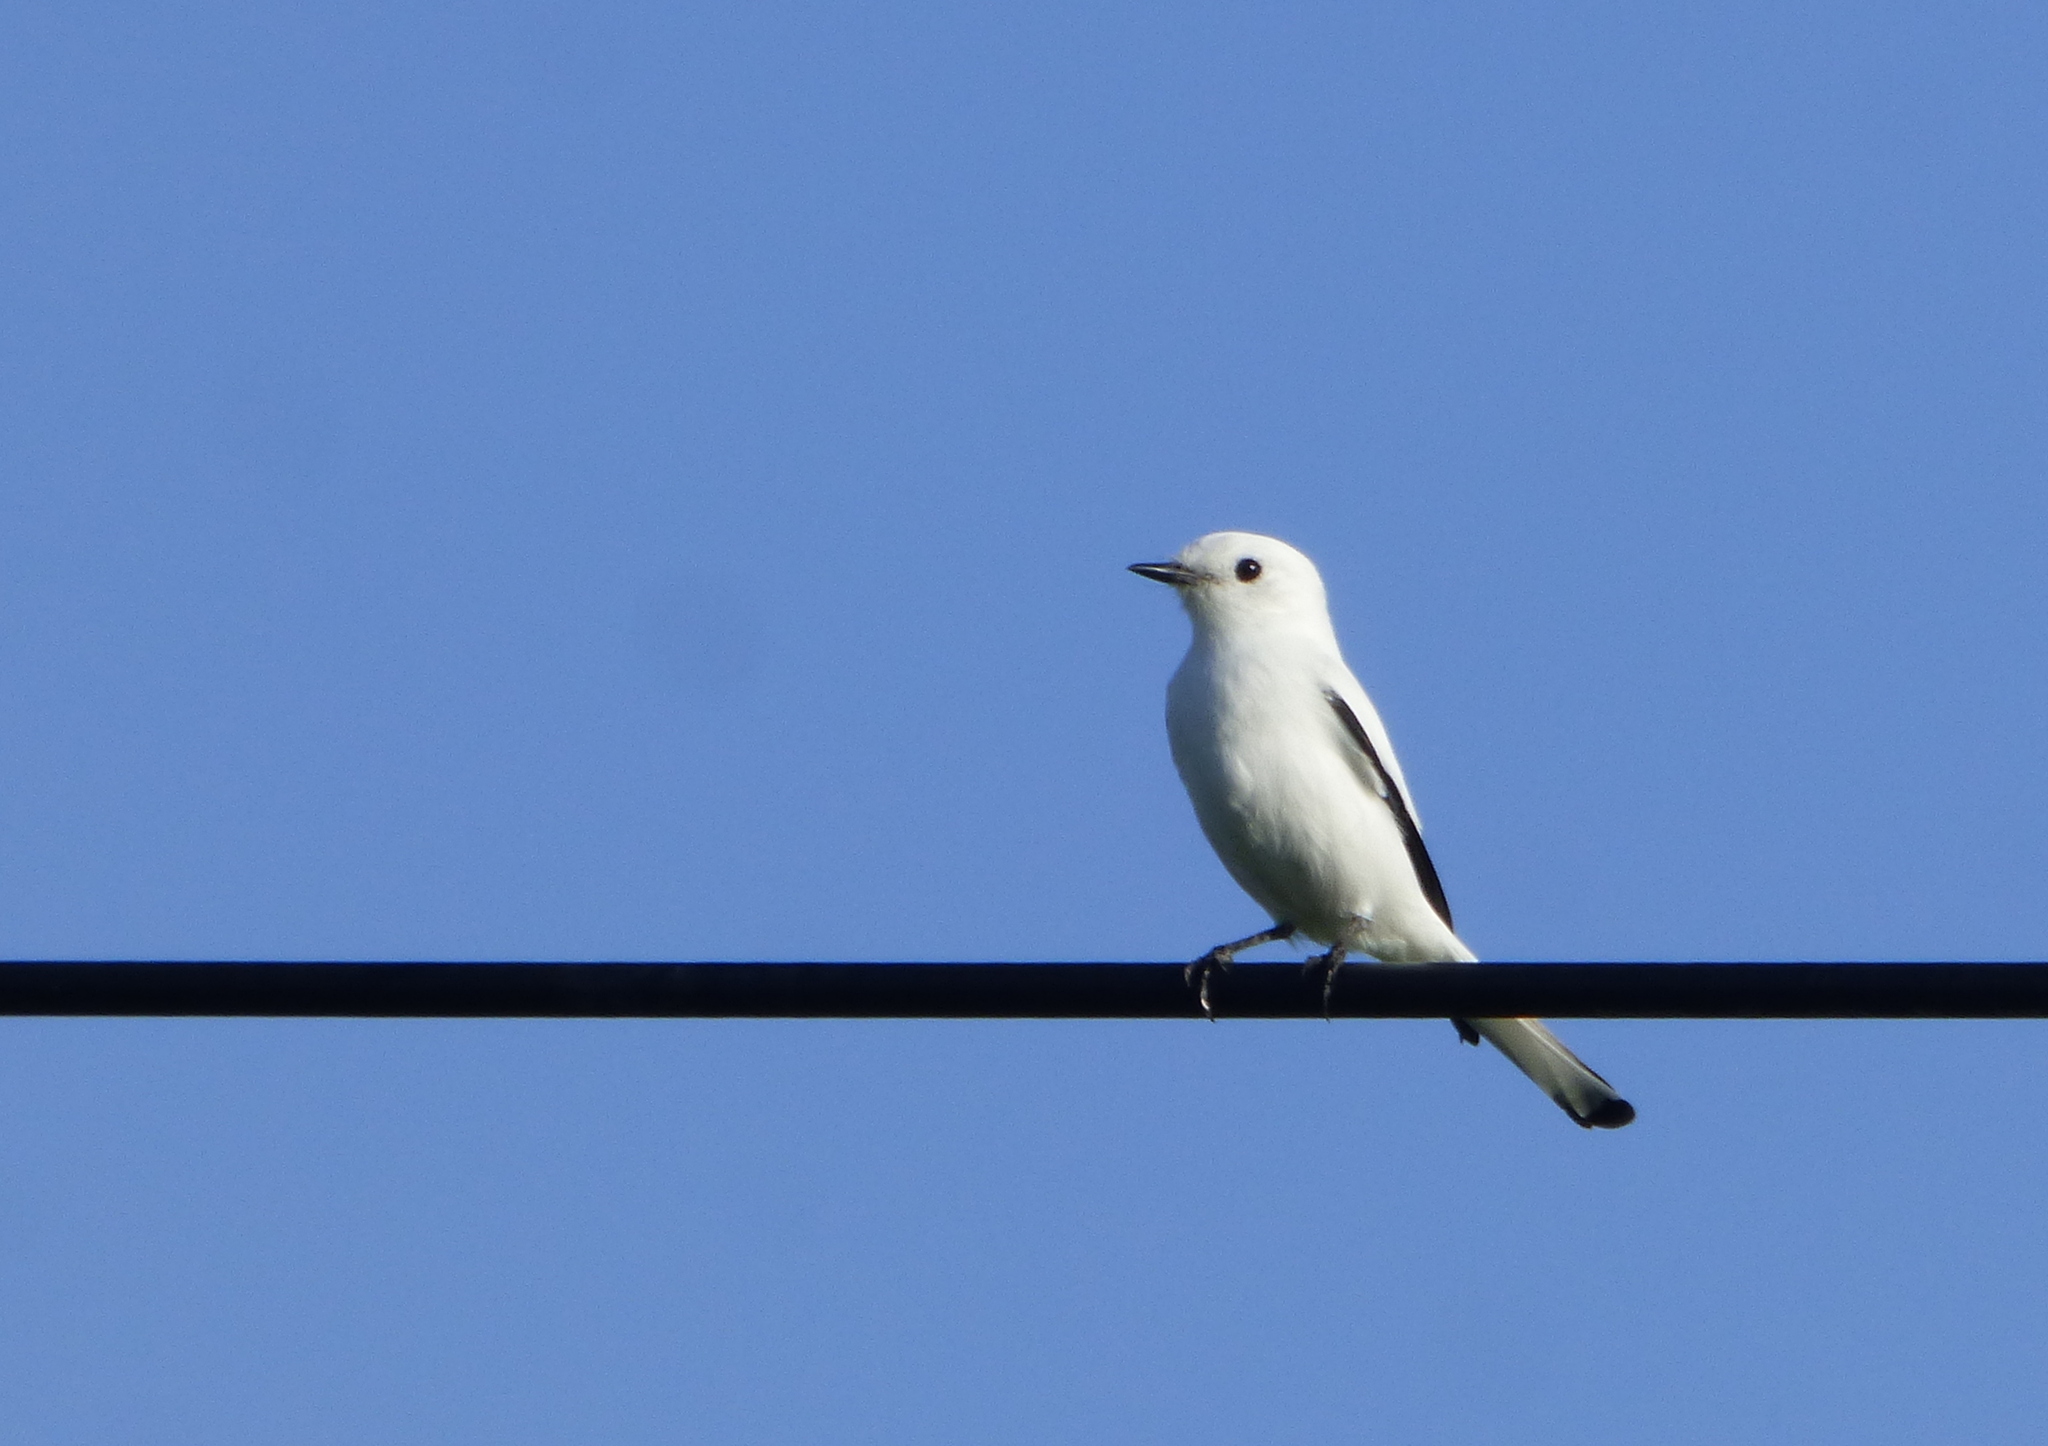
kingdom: Animalia
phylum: Chordata
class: Aves
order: Passeriformes
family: Tyrannidae
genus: Xolmis
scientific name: Xolmis irupero
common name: White monjita
